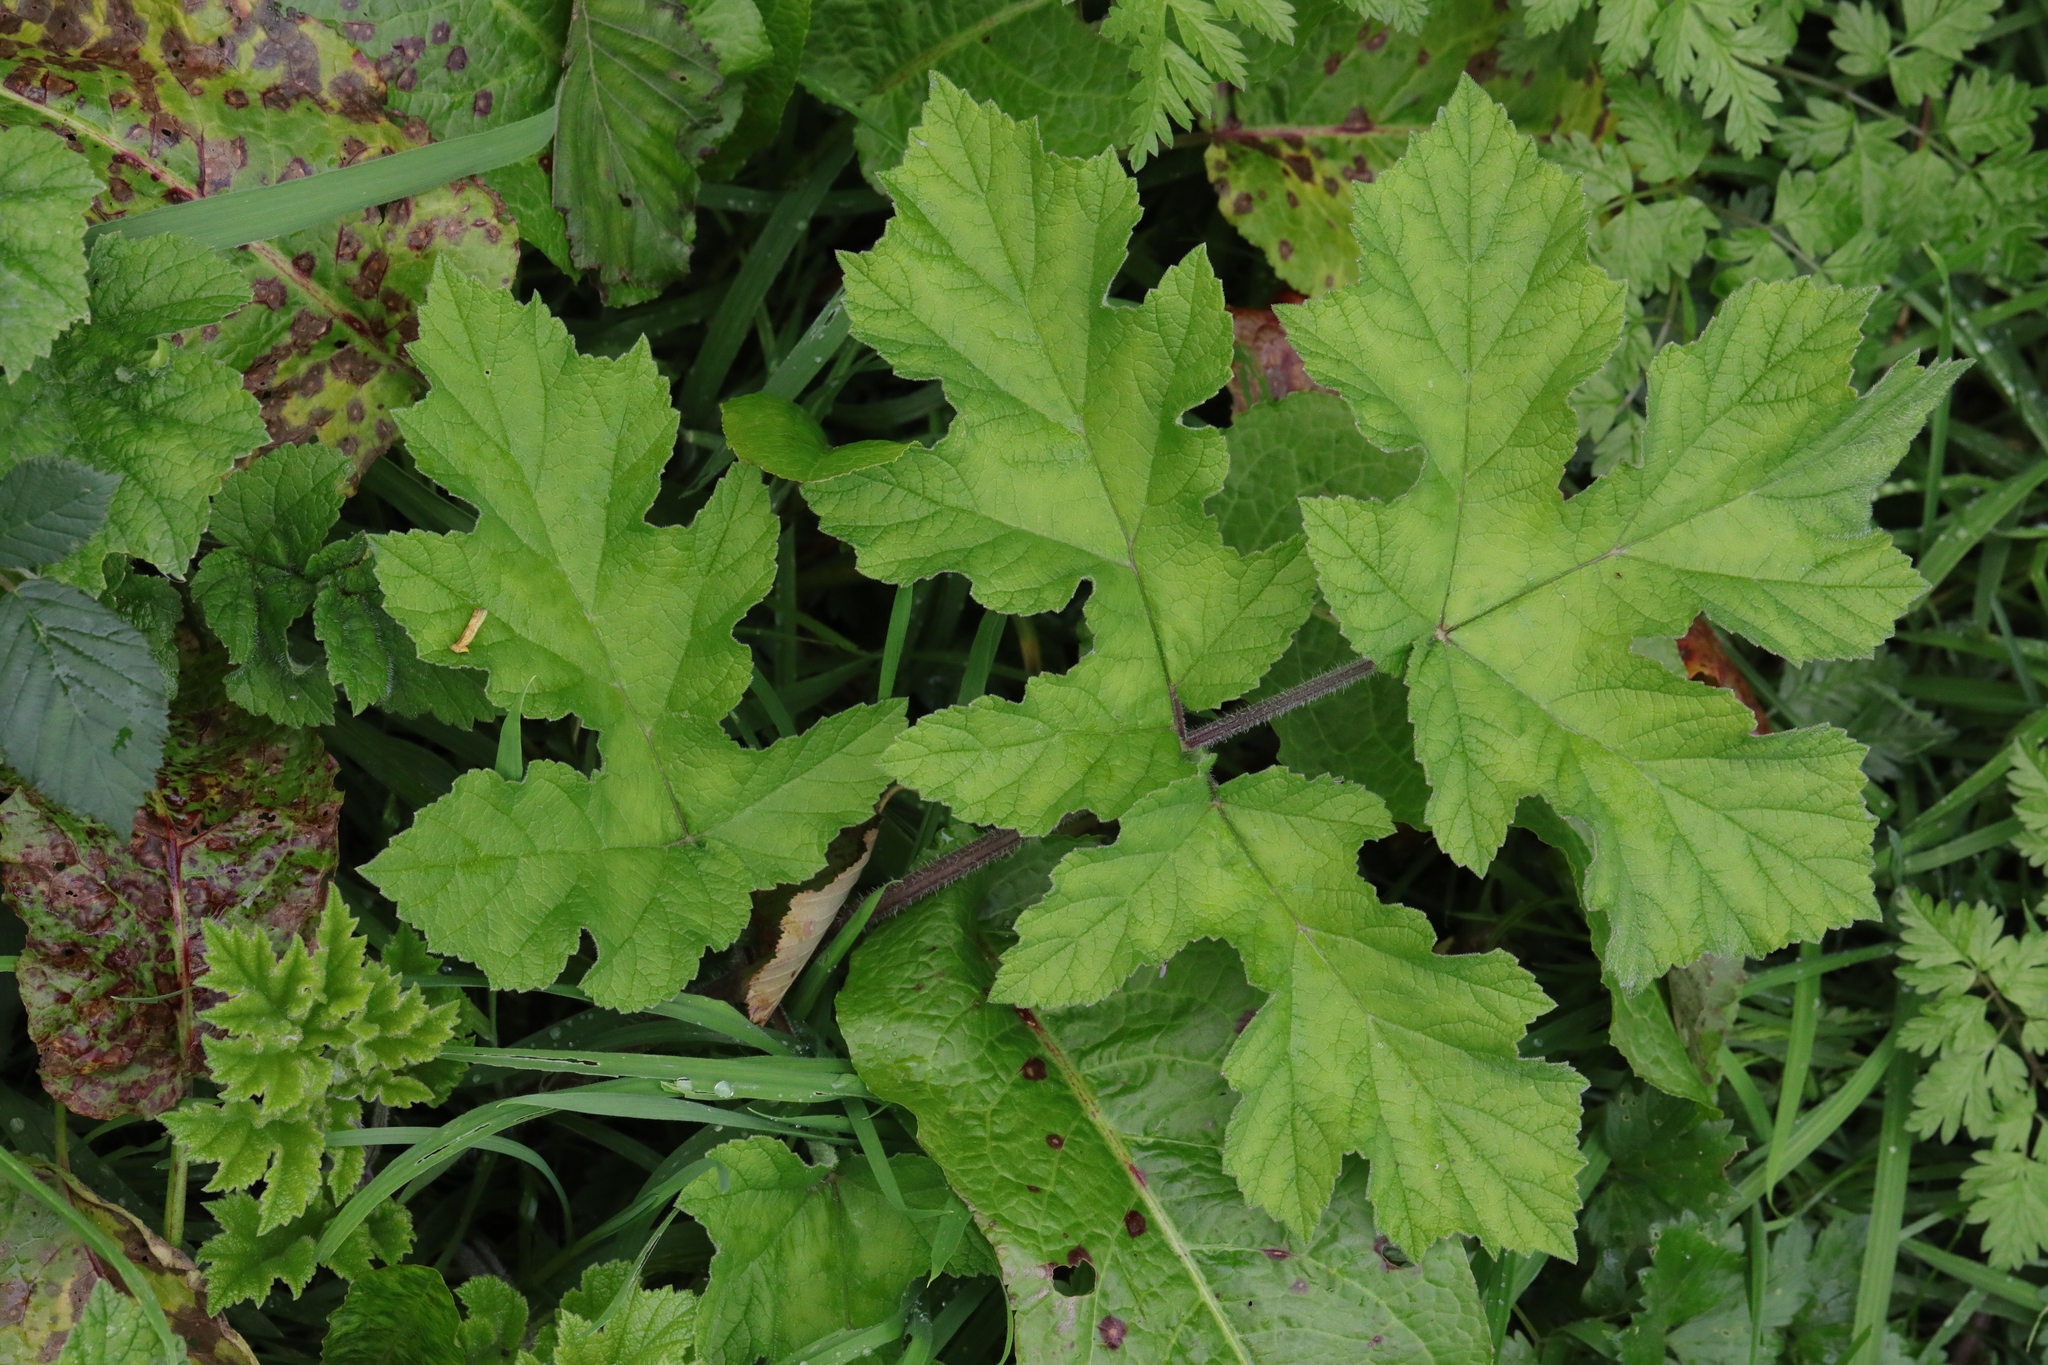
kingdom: Plantae
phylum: Tracheophyta
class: Magnoliopsida
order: Apiales
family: Apiaceae
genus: Heracleum
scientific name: Heracleum sphondylium
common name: Hogweed
